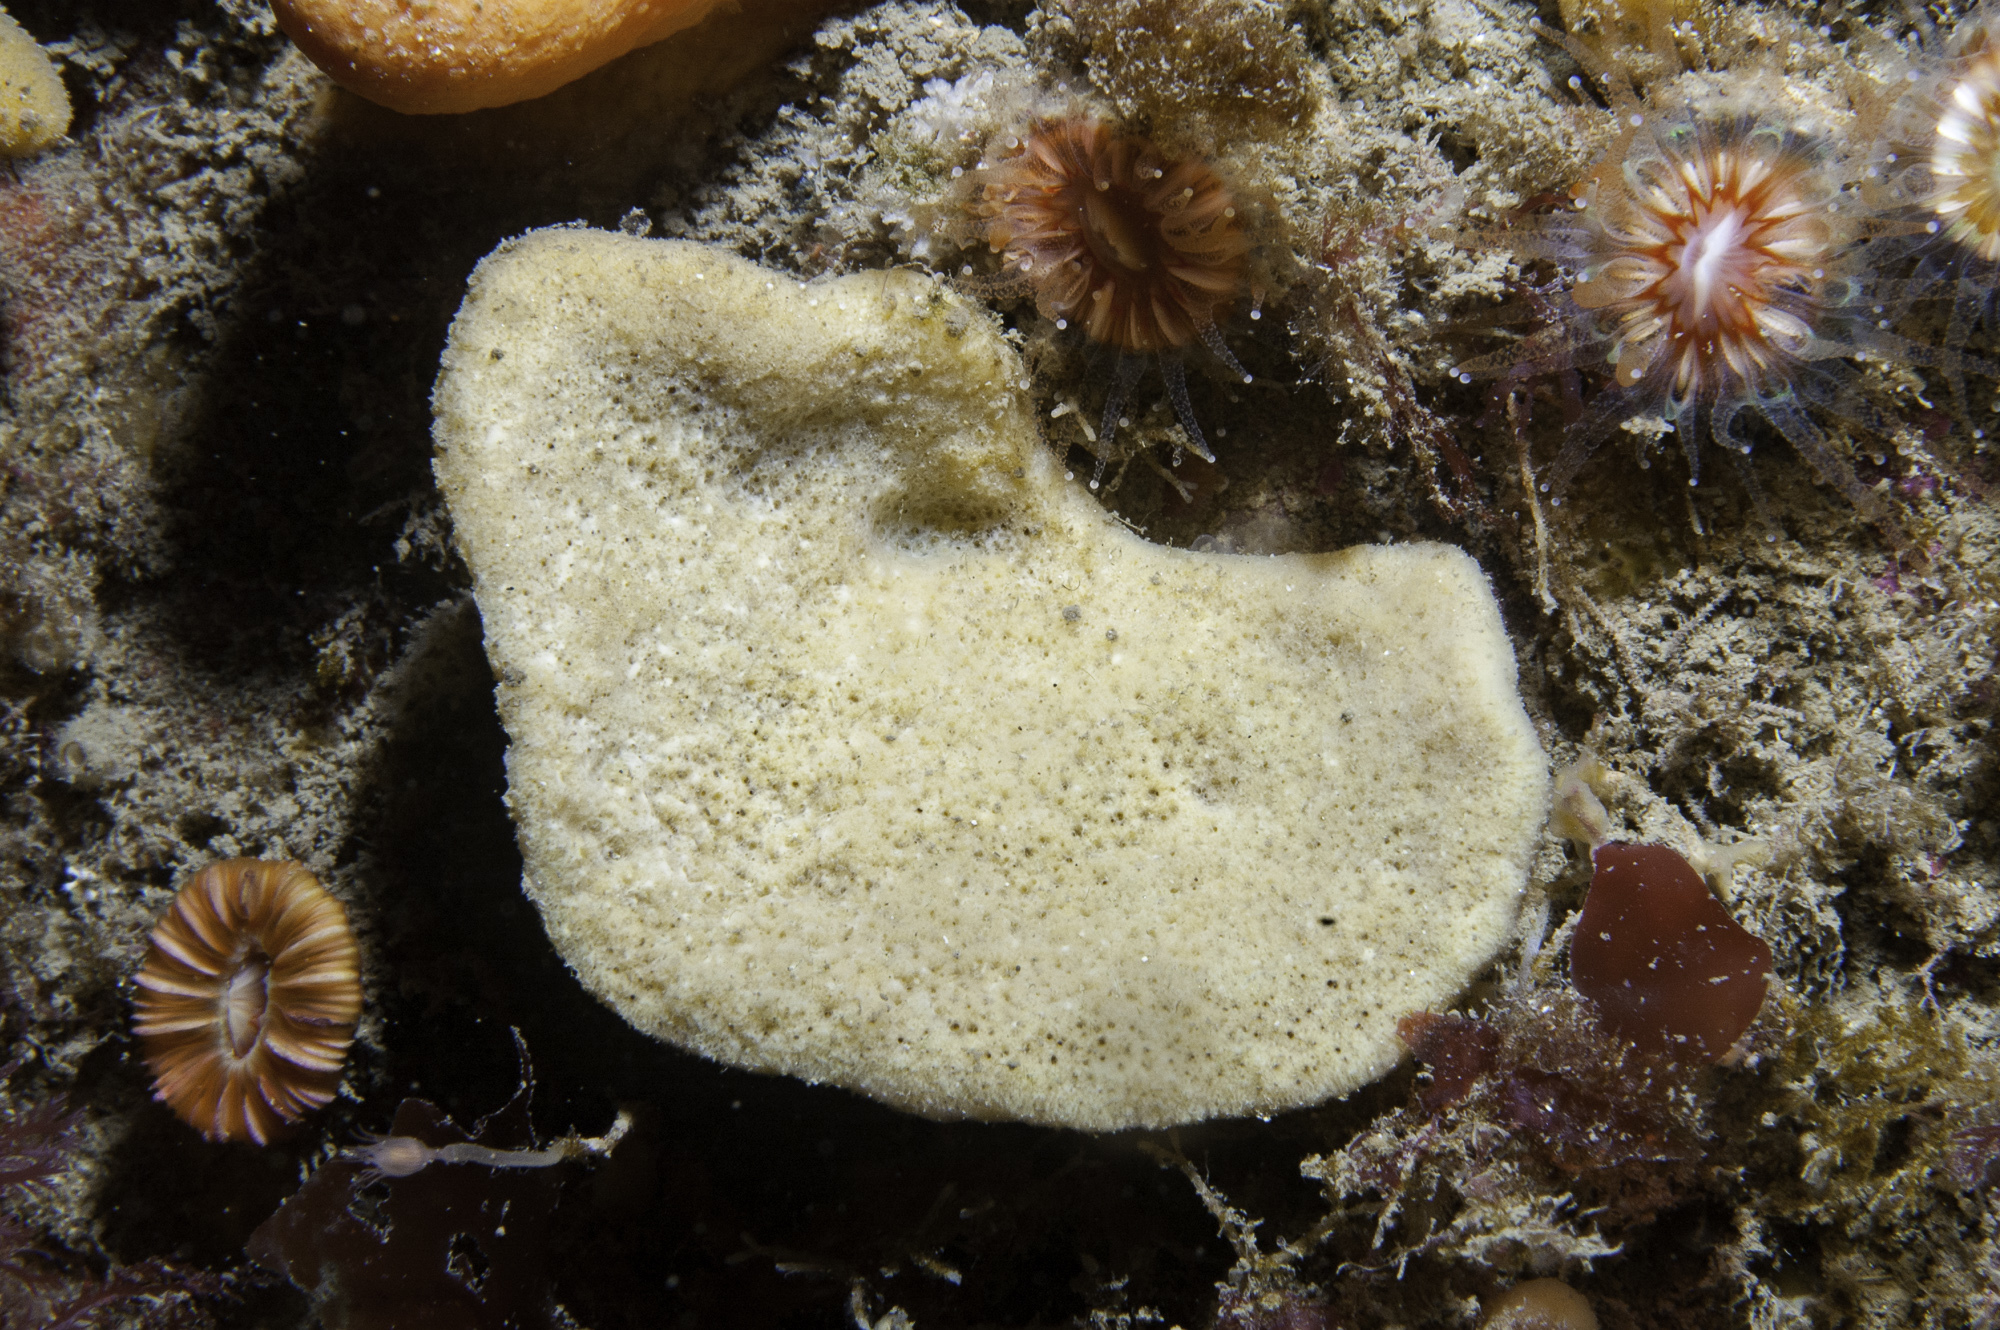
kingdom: Animalia
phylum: Porifera
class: Demospongiae
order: Axinellida
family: Axinellidae
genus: Axinella
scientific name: Axinella infundibuliformis
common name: North atlantic cup sponge
